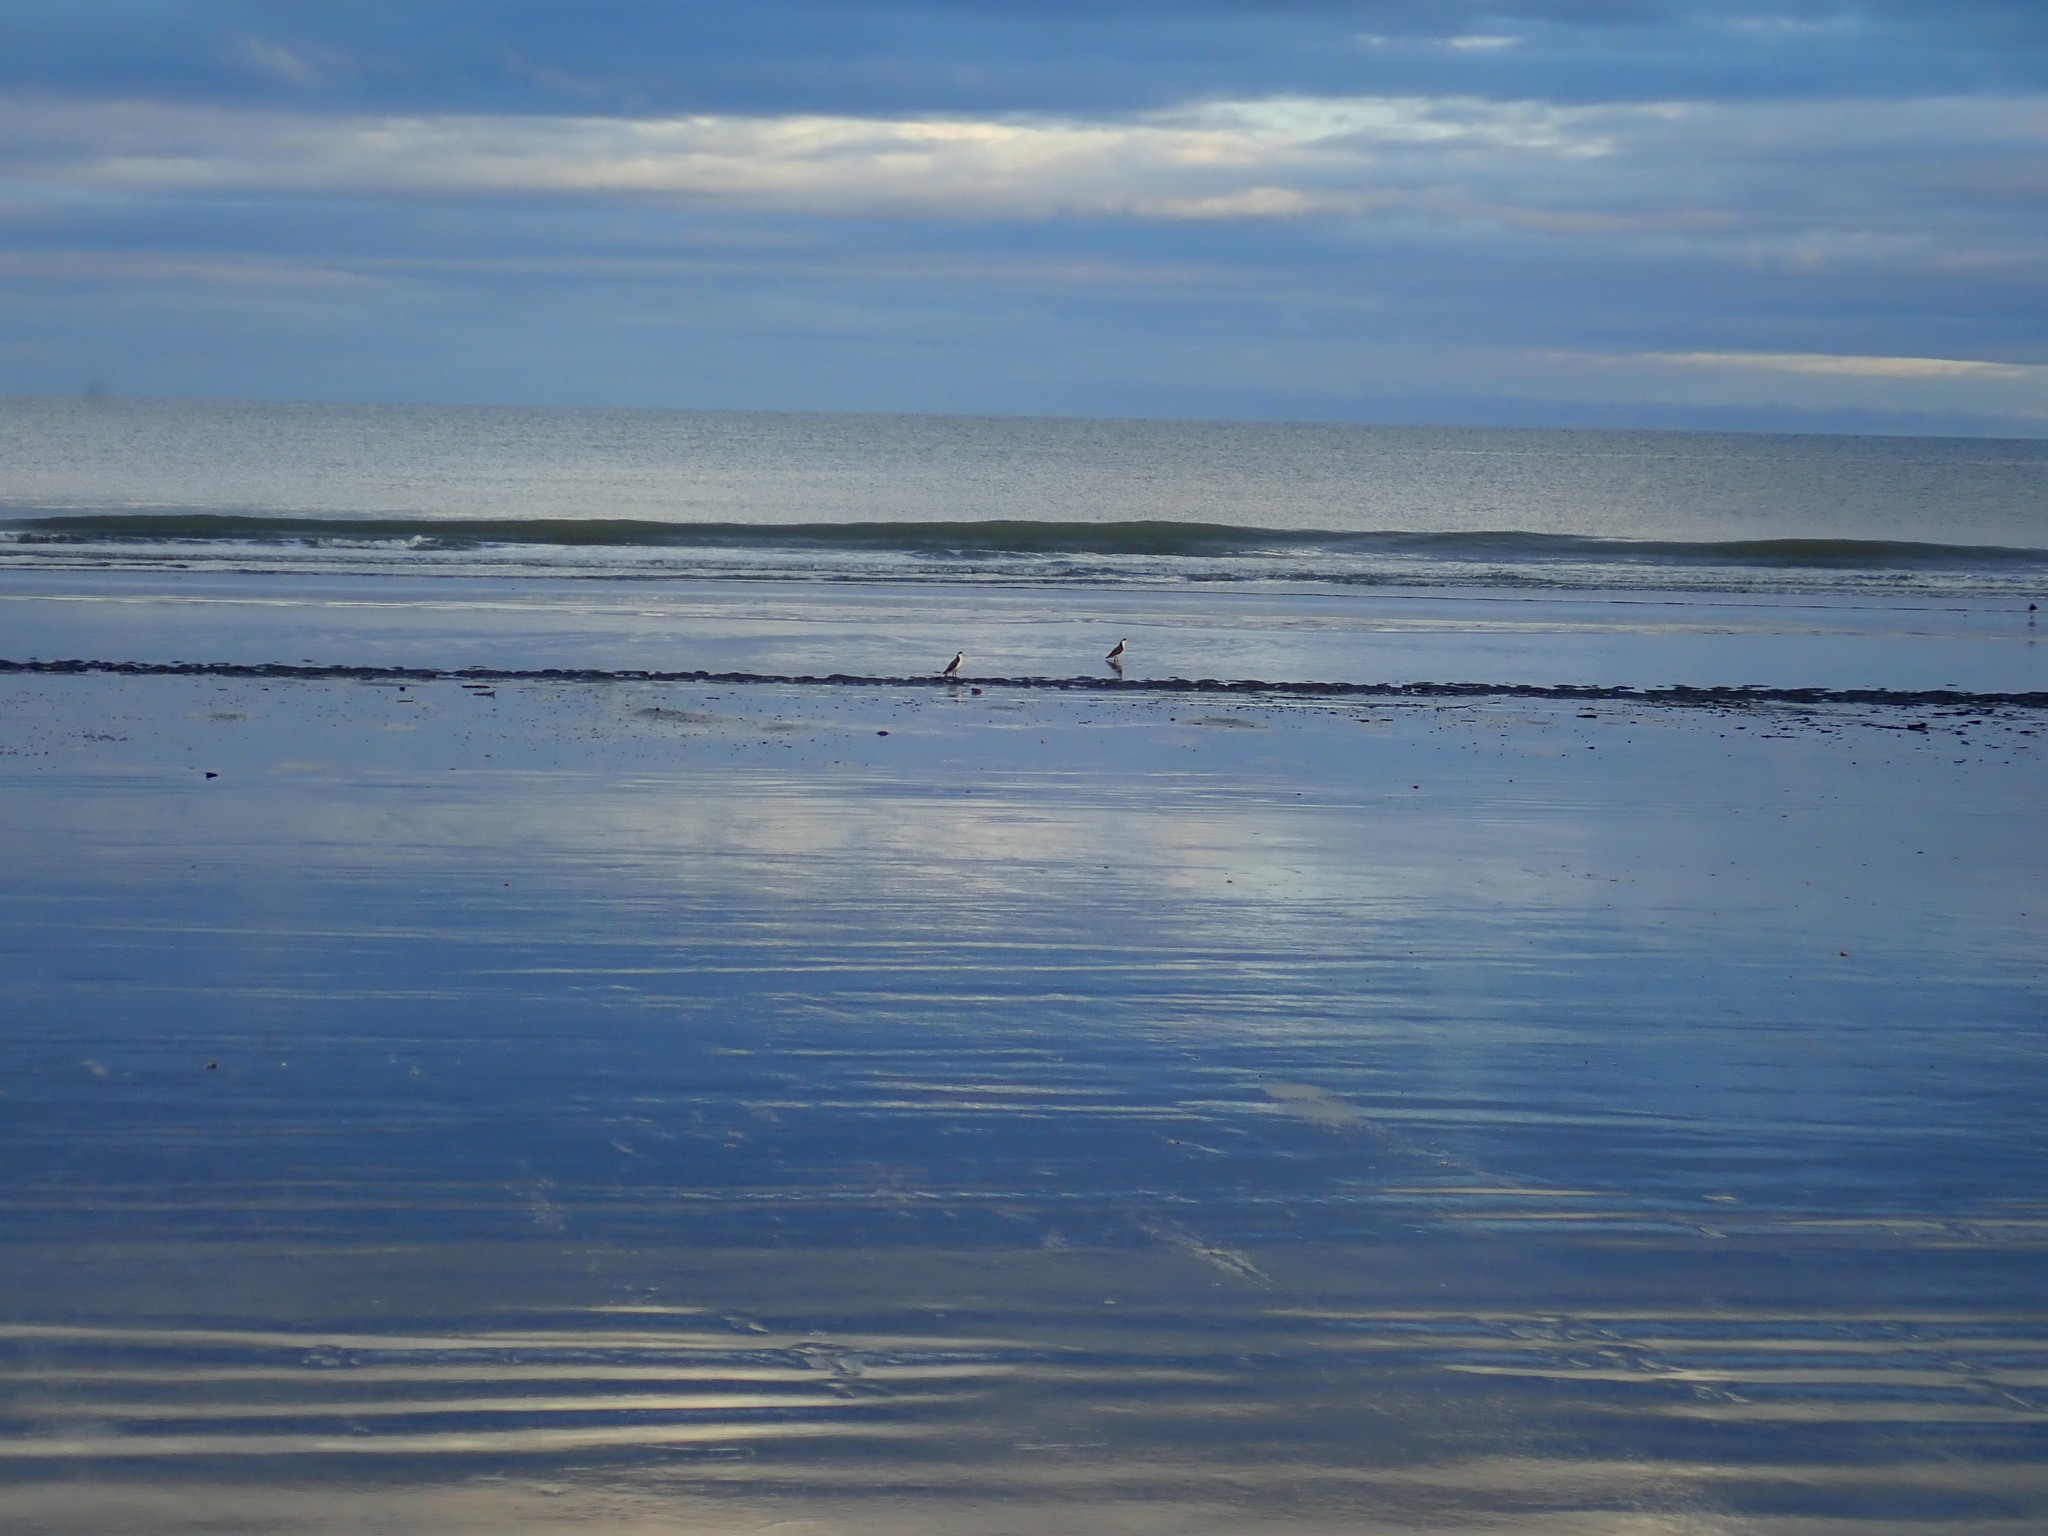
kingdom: Animalia
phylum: Chordata
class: Aves
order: Charadriiformes
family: Charadriidae
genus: Vanellus
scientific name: Vanellus miles
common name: Masked lapwing
